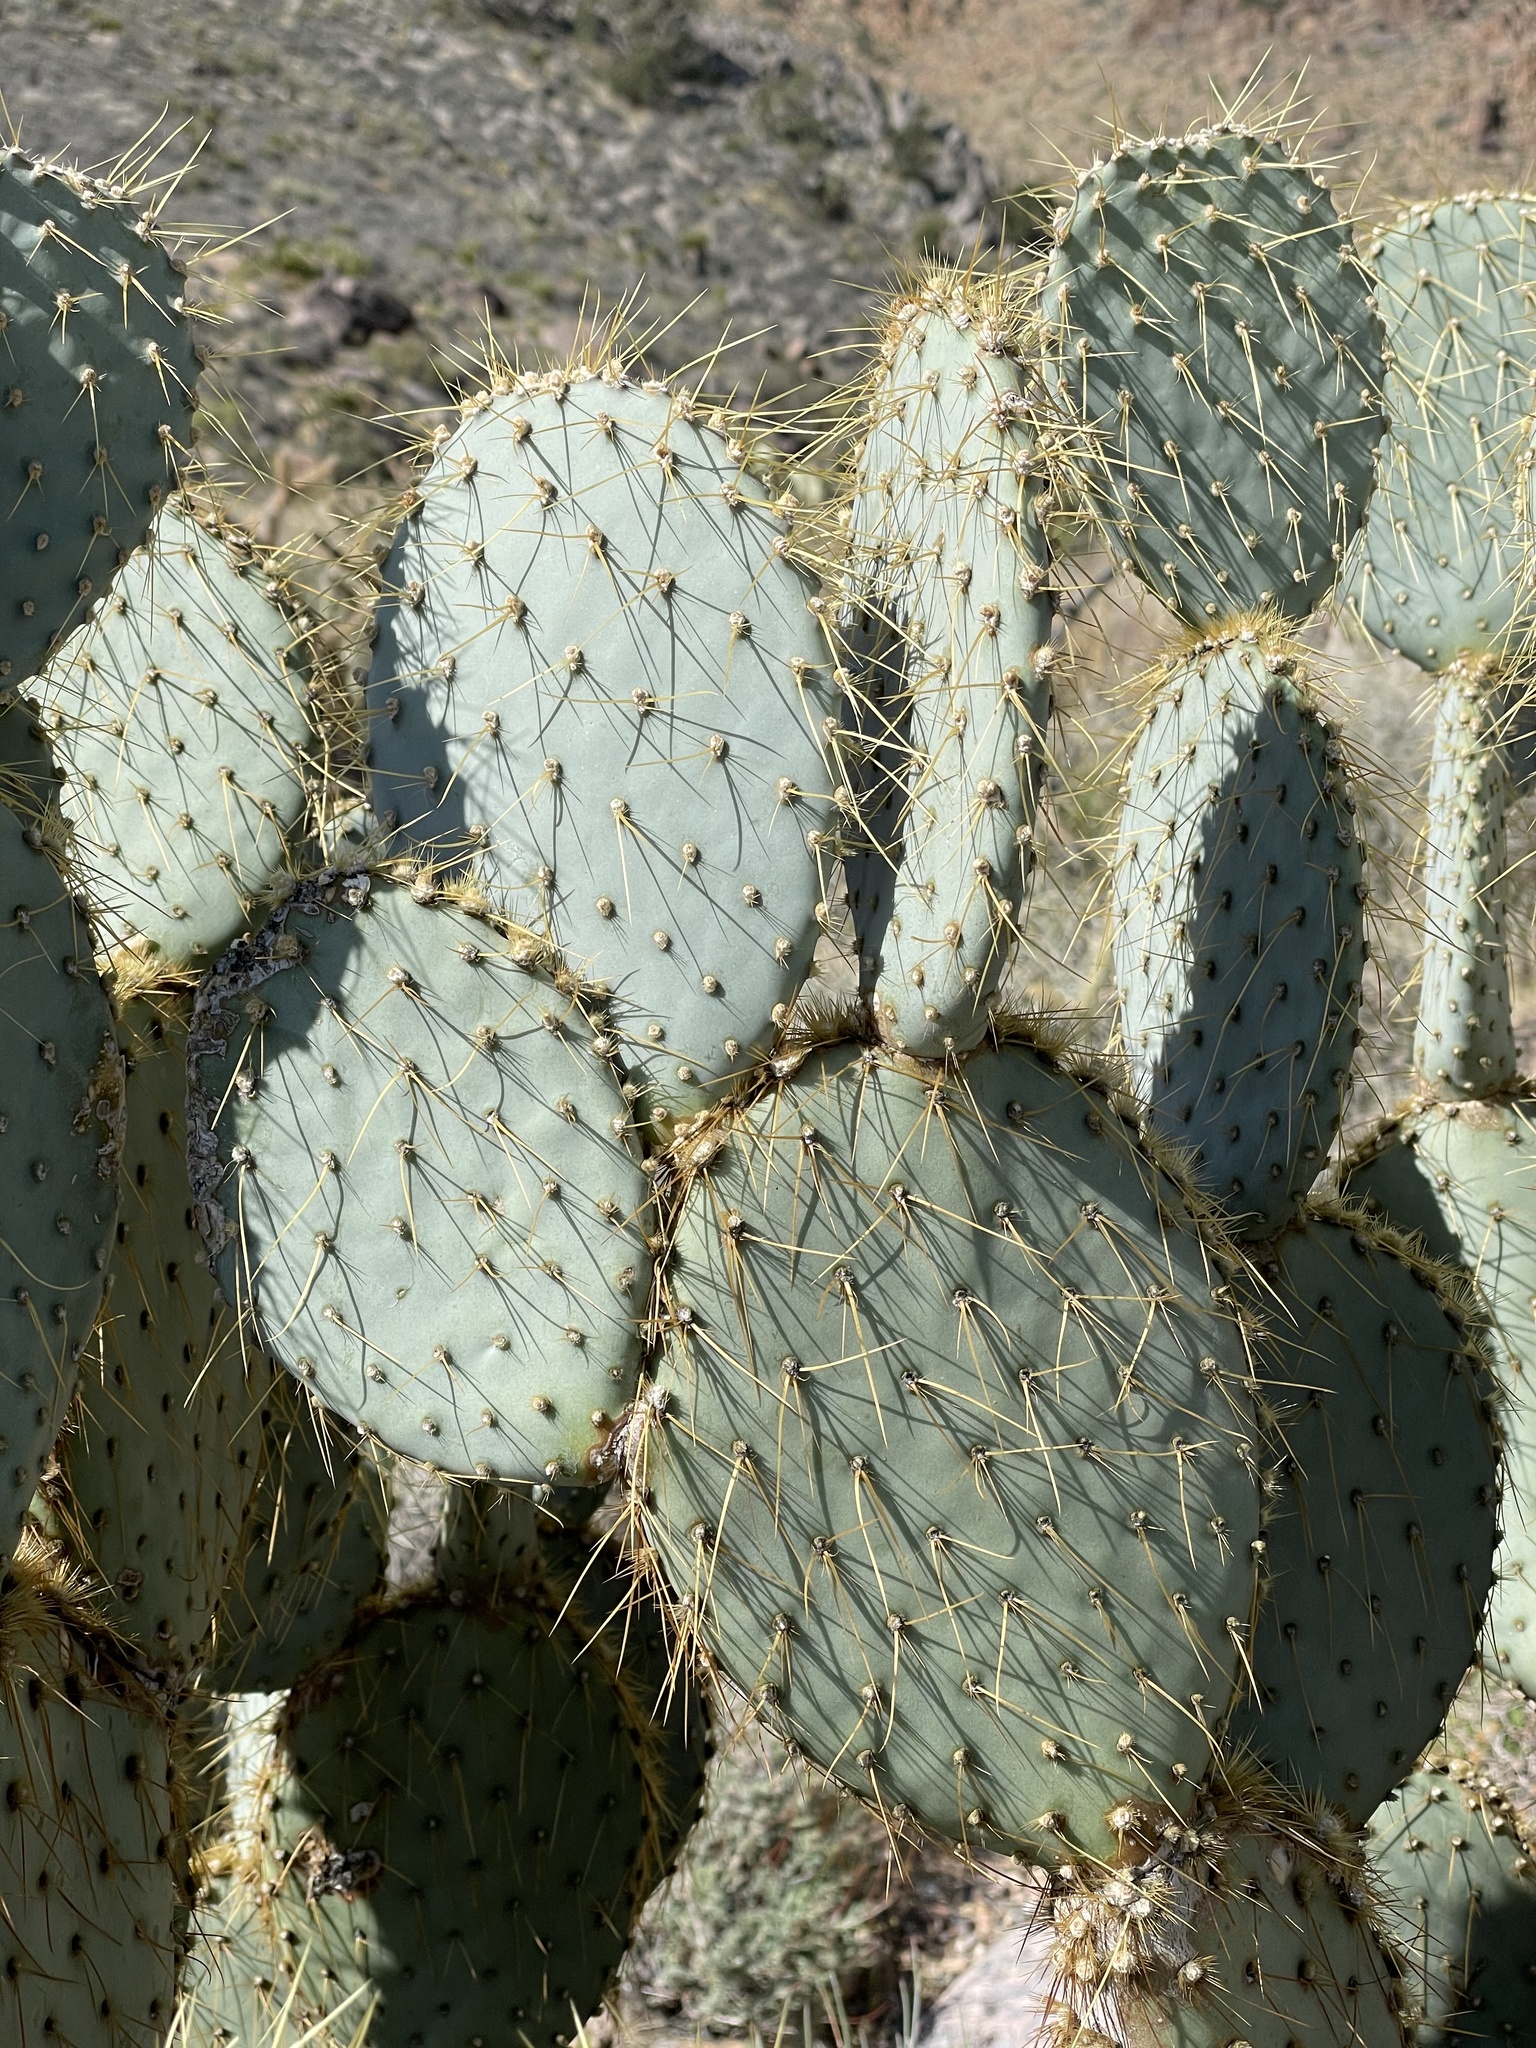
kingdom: Plantae
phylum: Tracheophyta
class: Magnoliopsida
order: Caryophyllales
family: Cactaceae
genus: Opuntia
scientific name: Opuntia chlorotica
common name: Dollar-joint prickly-pear
